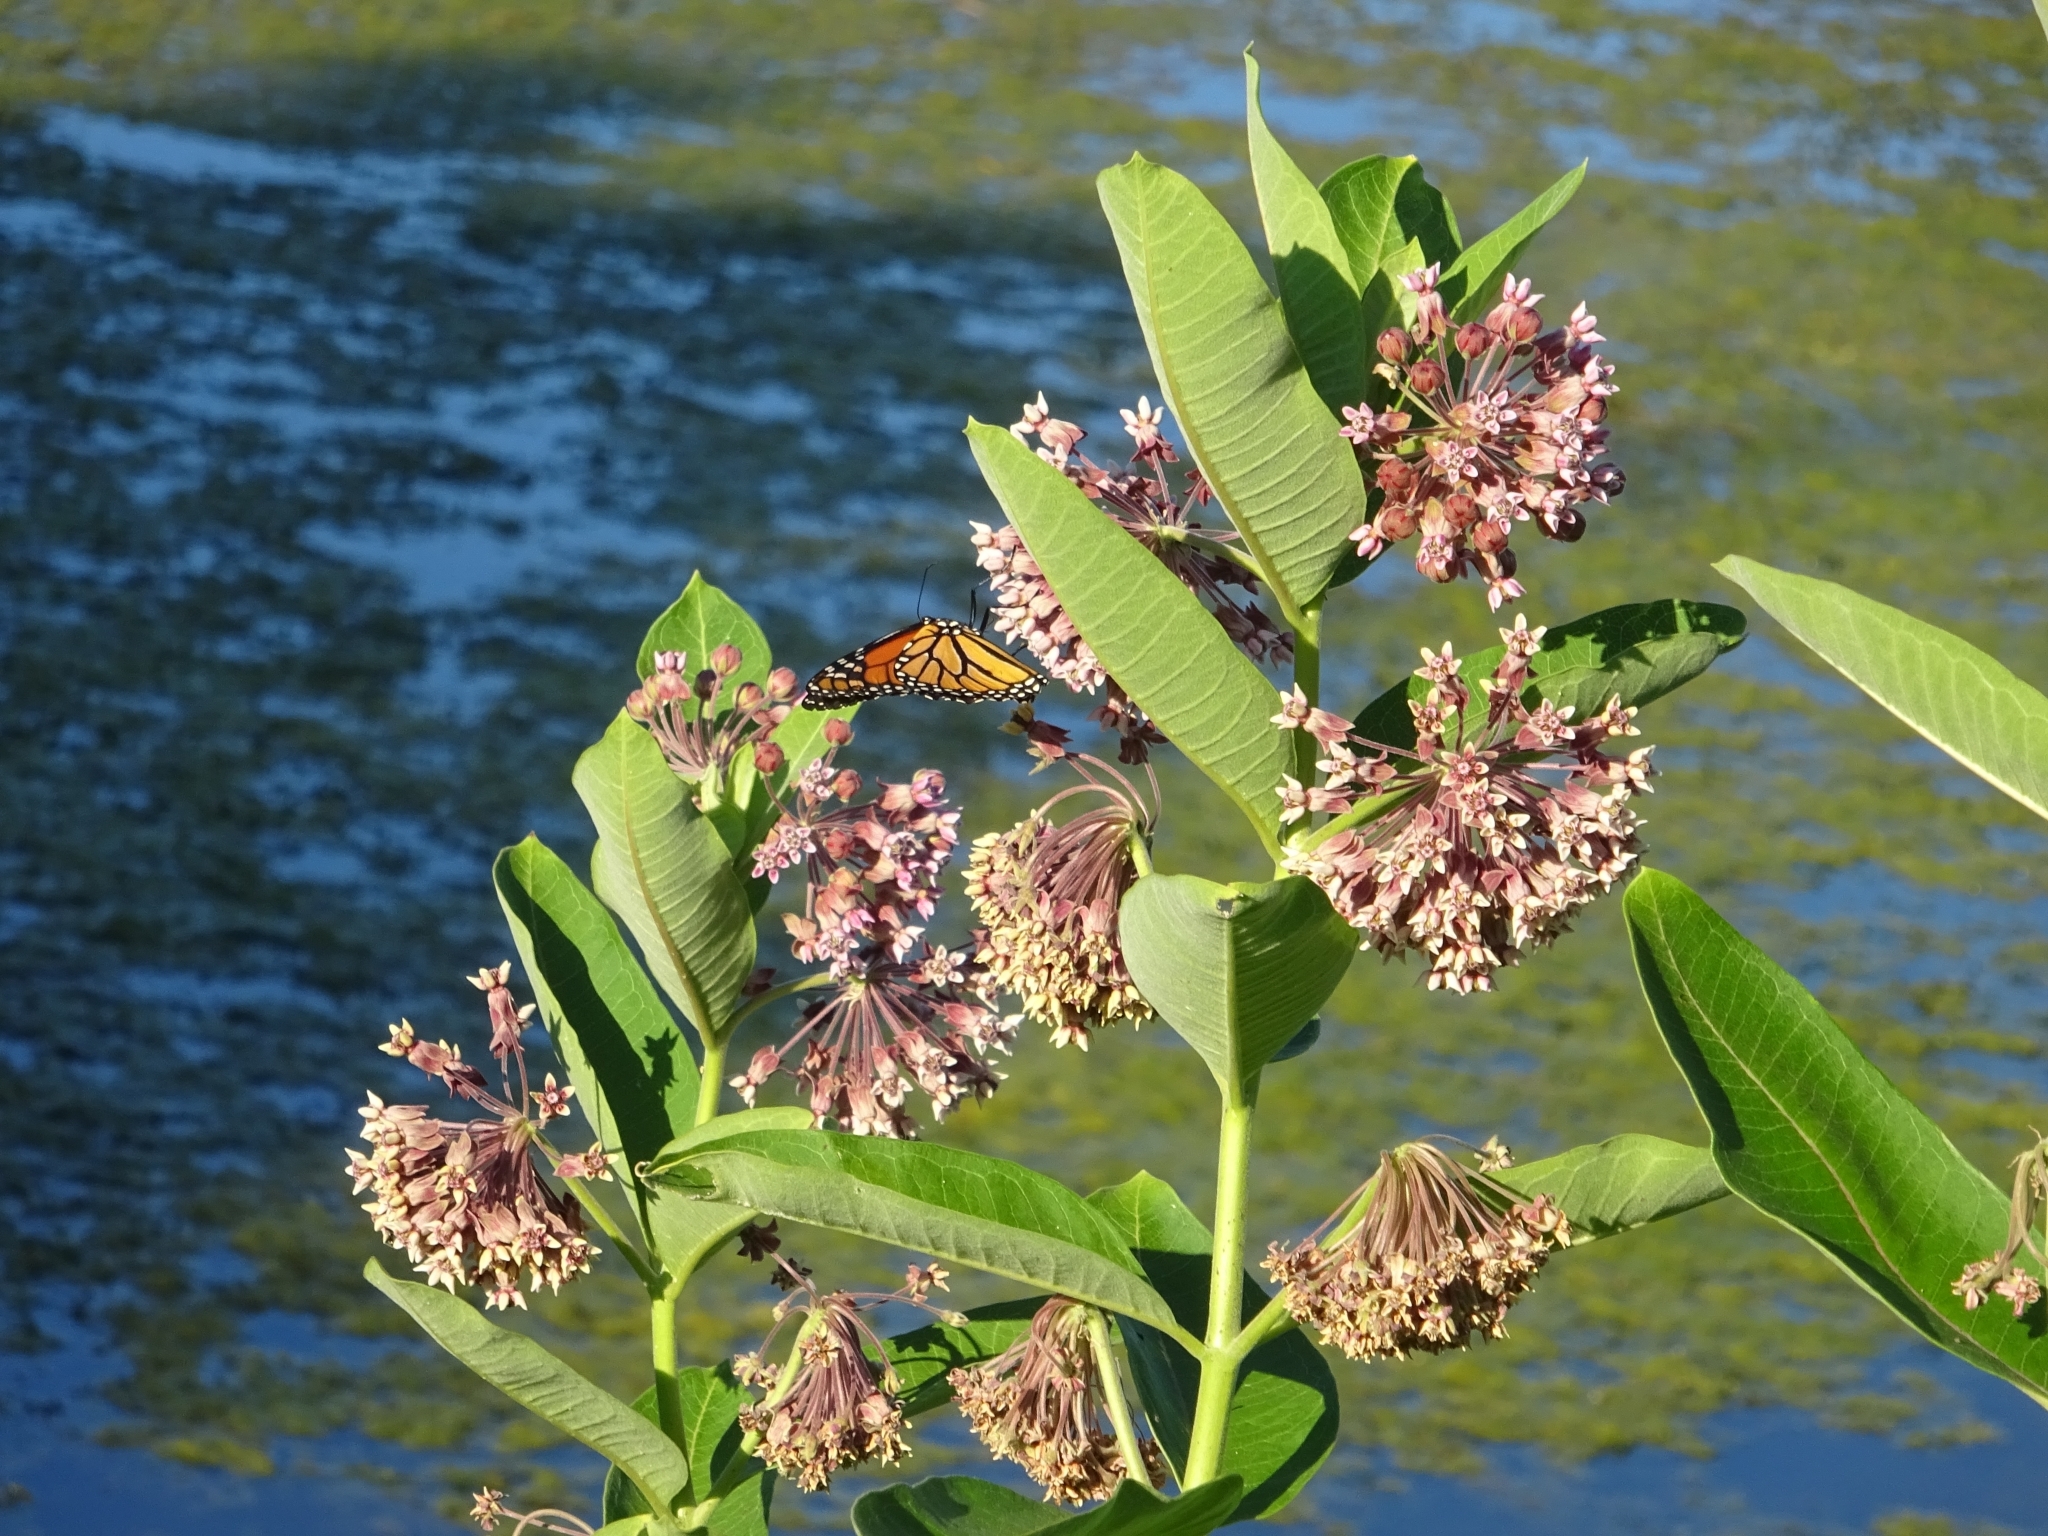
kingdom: Plantae
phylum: Tracheophyta
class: Magnoliopsida
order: Gentianales
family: Apocynaceae
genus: Asclepias
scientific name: Asclepias syriaca
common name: Common milkweed
